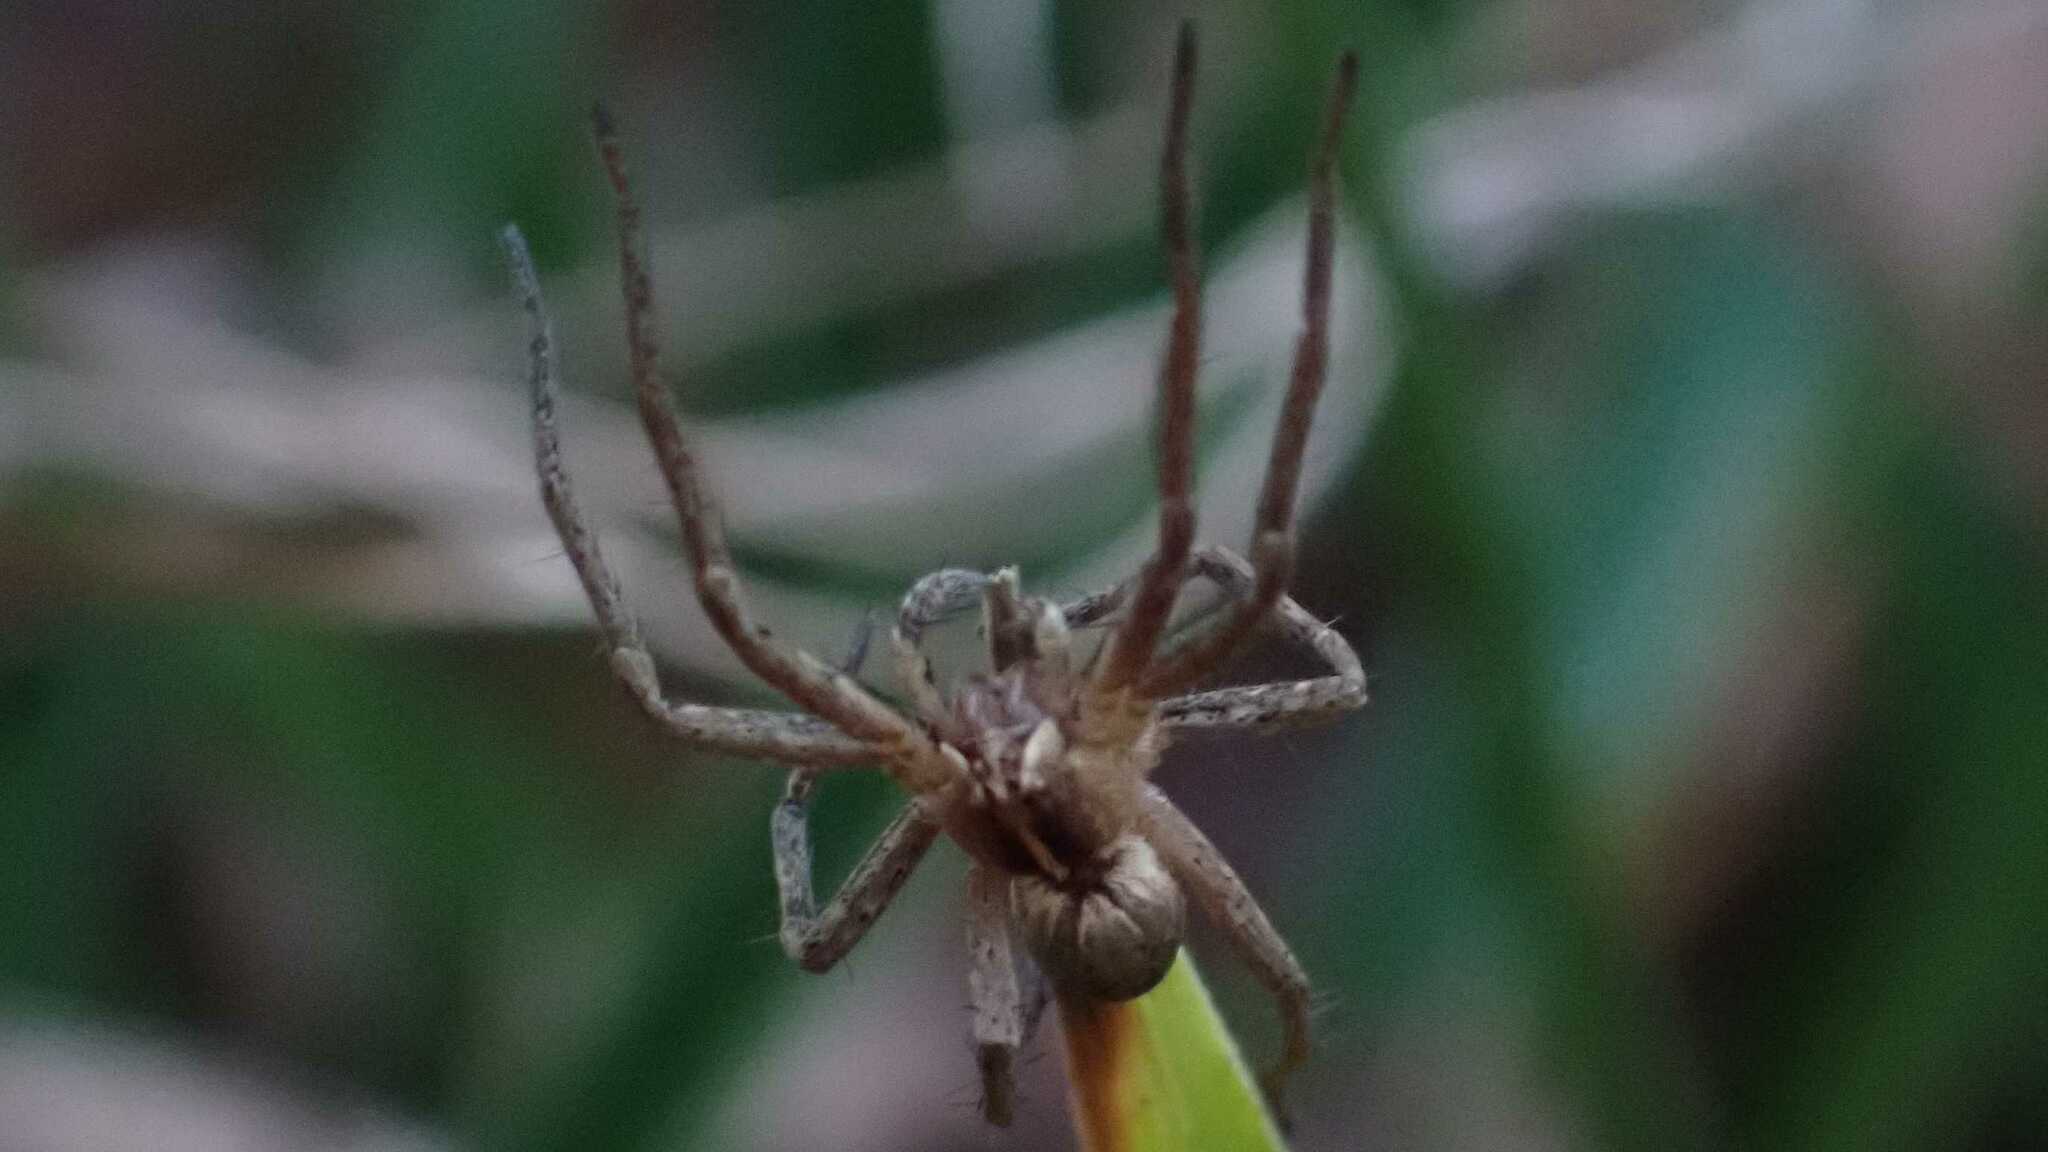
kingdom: Animalia
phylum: Arthropoda
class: Arachnida
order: Araneae
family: Pisauridae
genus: Pisaura
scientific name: Pisaura mirabilis
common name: Tent spider
